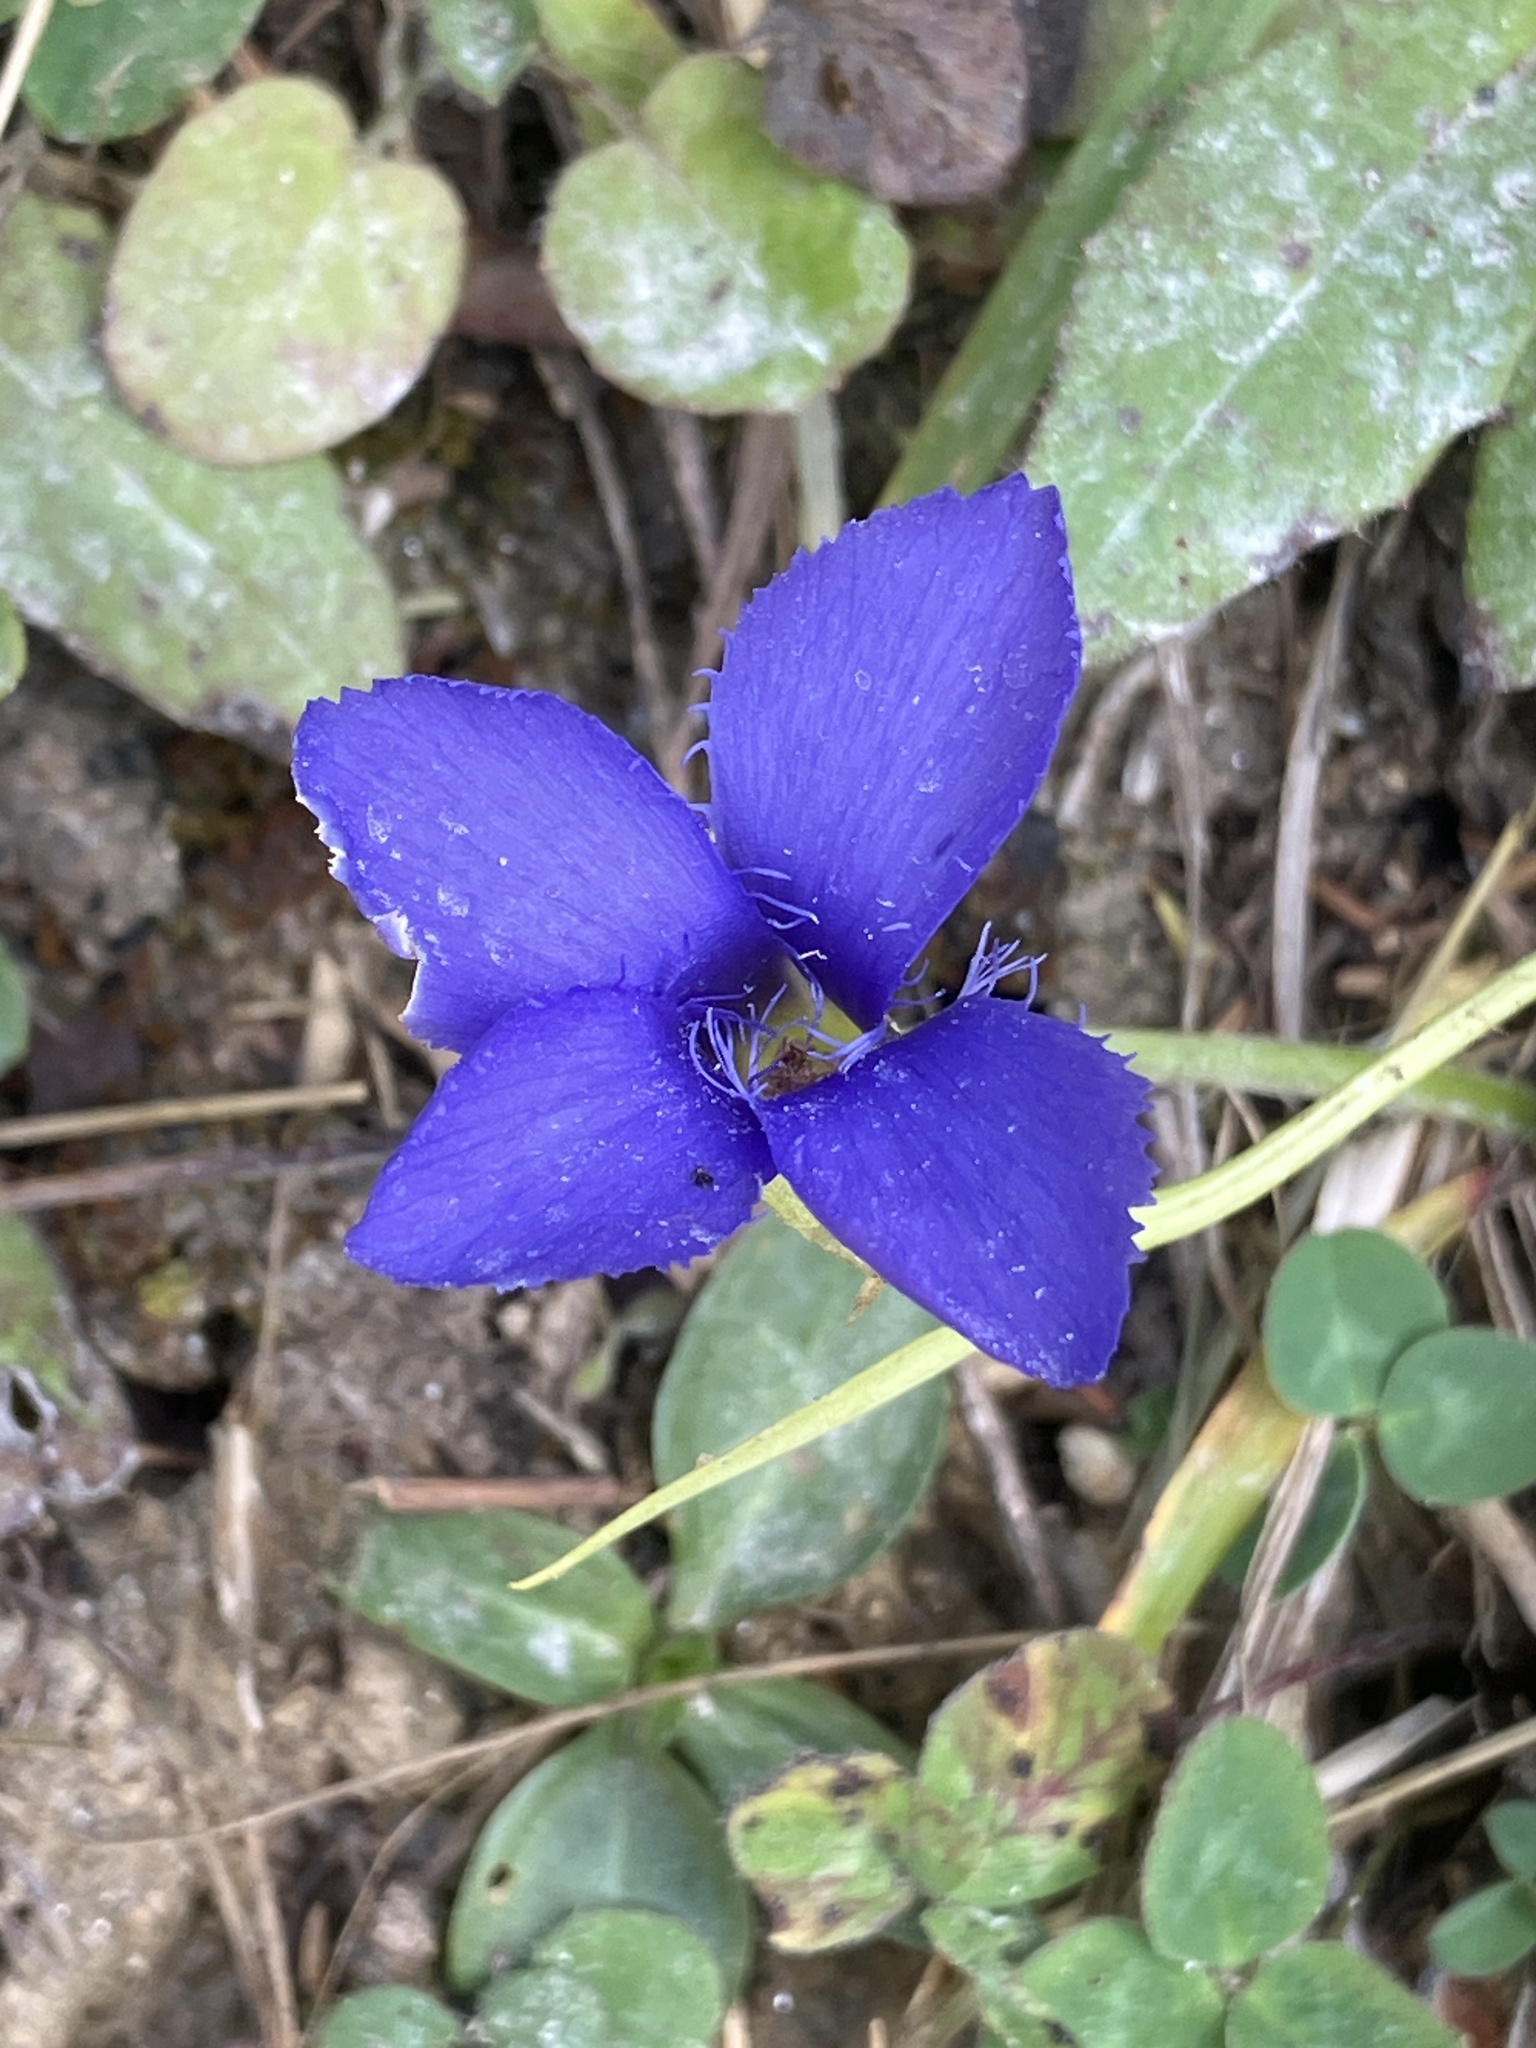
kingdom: Plantae
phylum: Tracheophyta
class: Magnoliopsida
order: Gentianales
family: Gentianaceae
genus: Gentianopsis
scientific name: Gentianopsis ciliata
